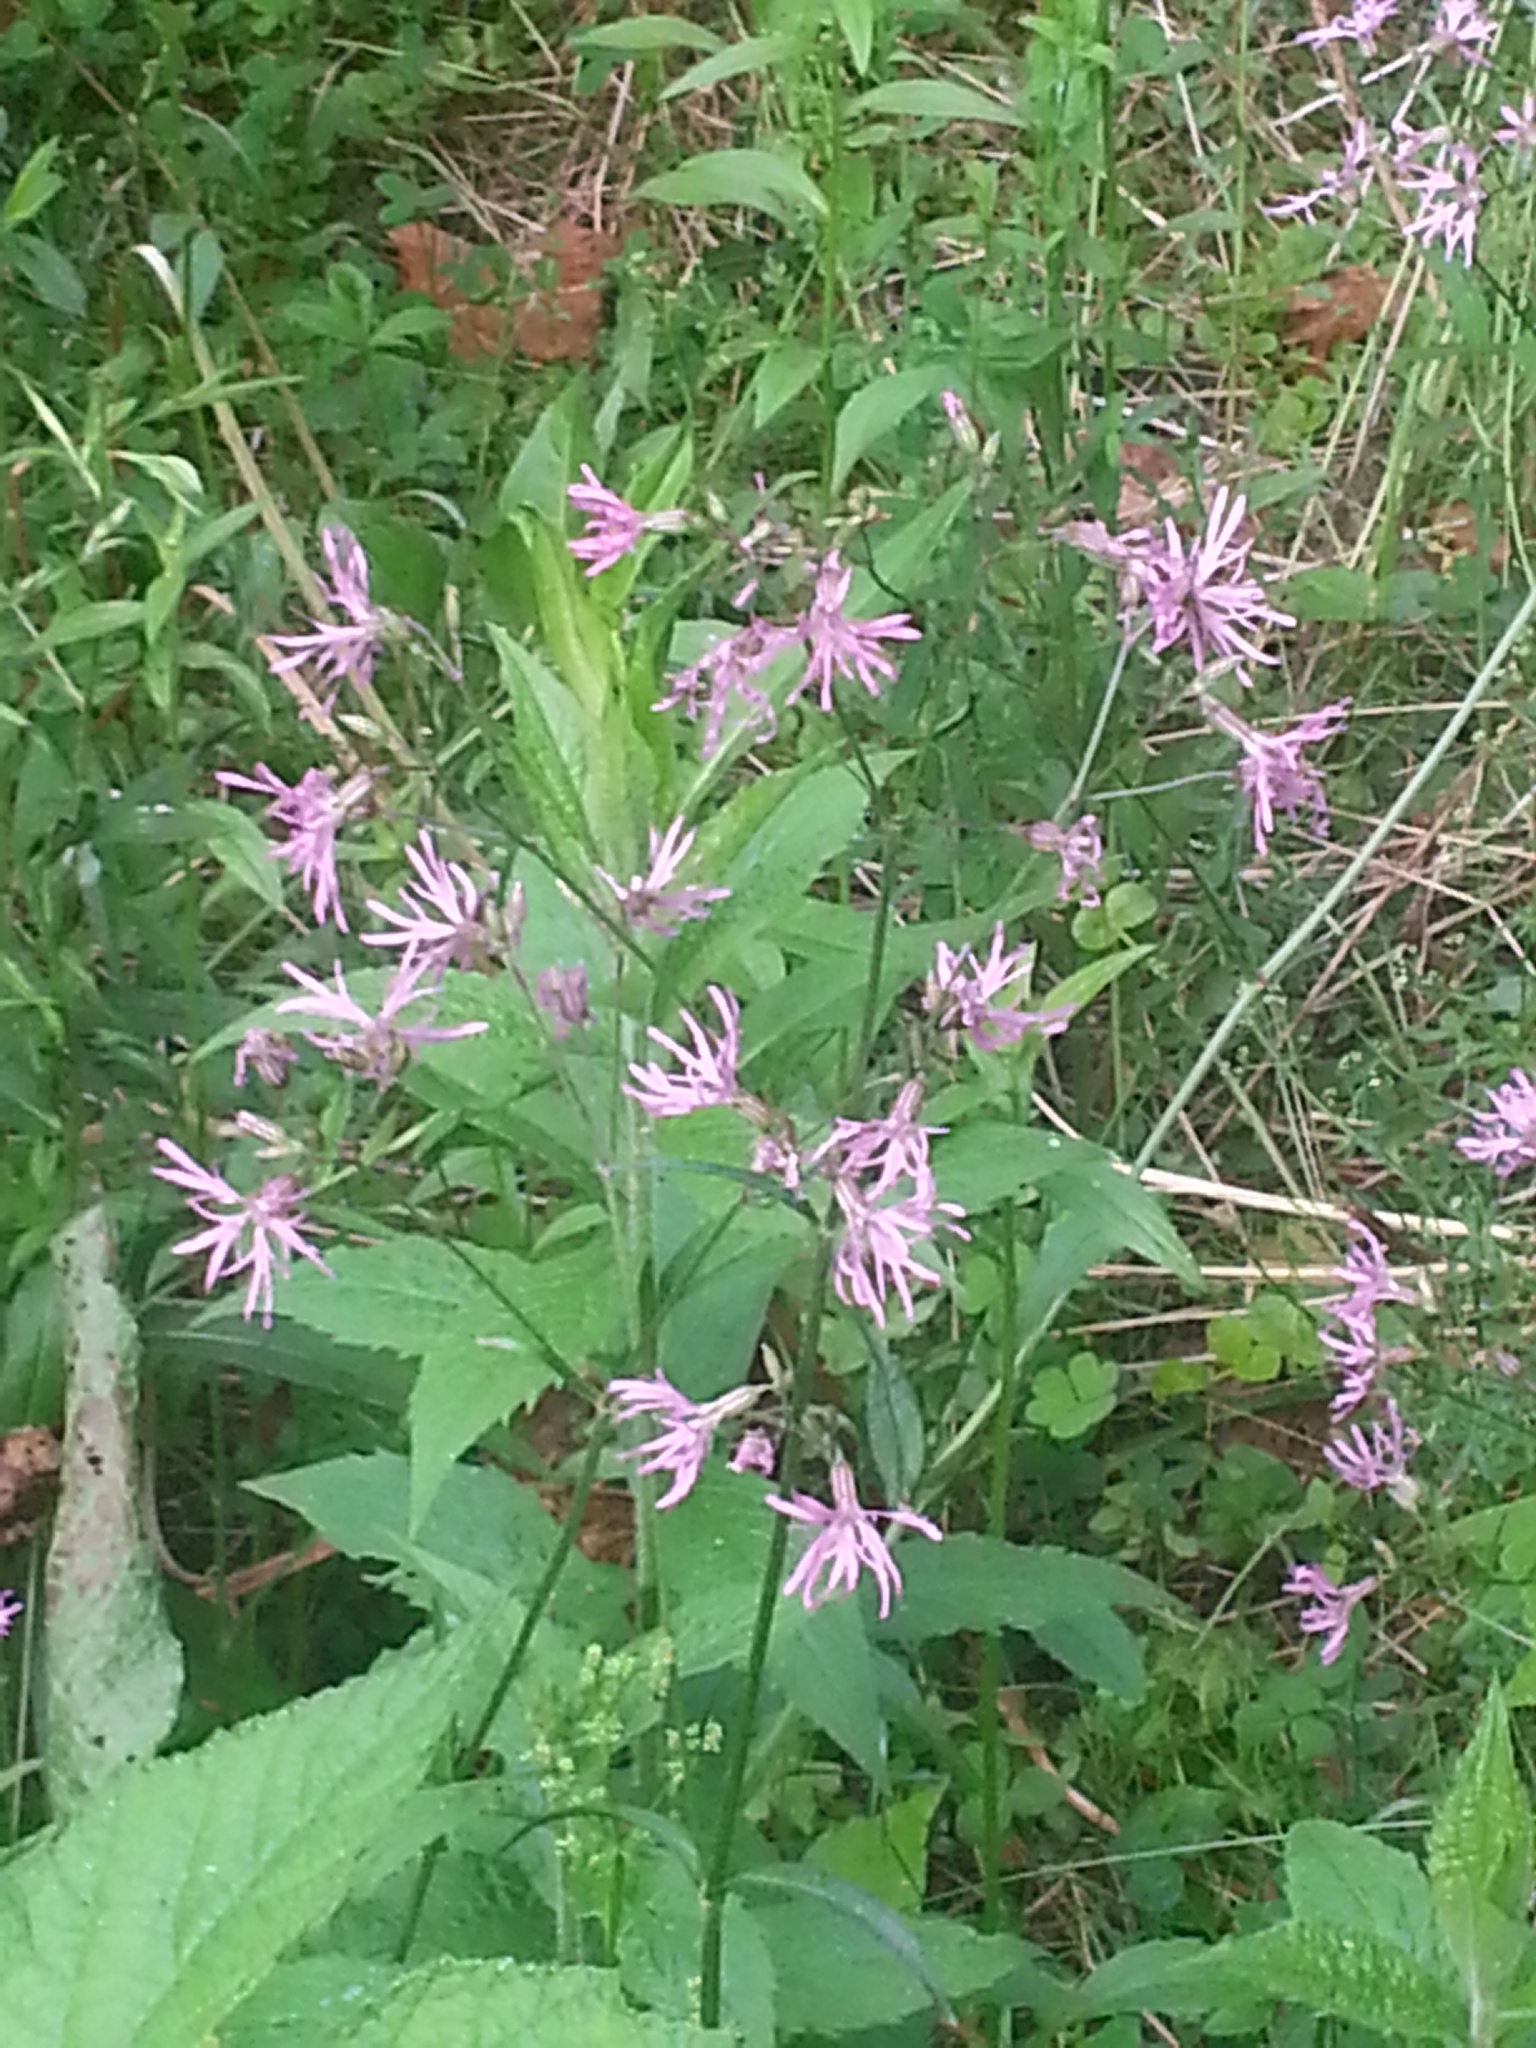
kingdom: Plantae
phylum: Tracheophyta
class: Magnoliopsida
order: Caryophyllales
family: Caryophyllaceae
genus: Silene
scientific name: Silene flos-cuculi
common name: Ragged-robin
